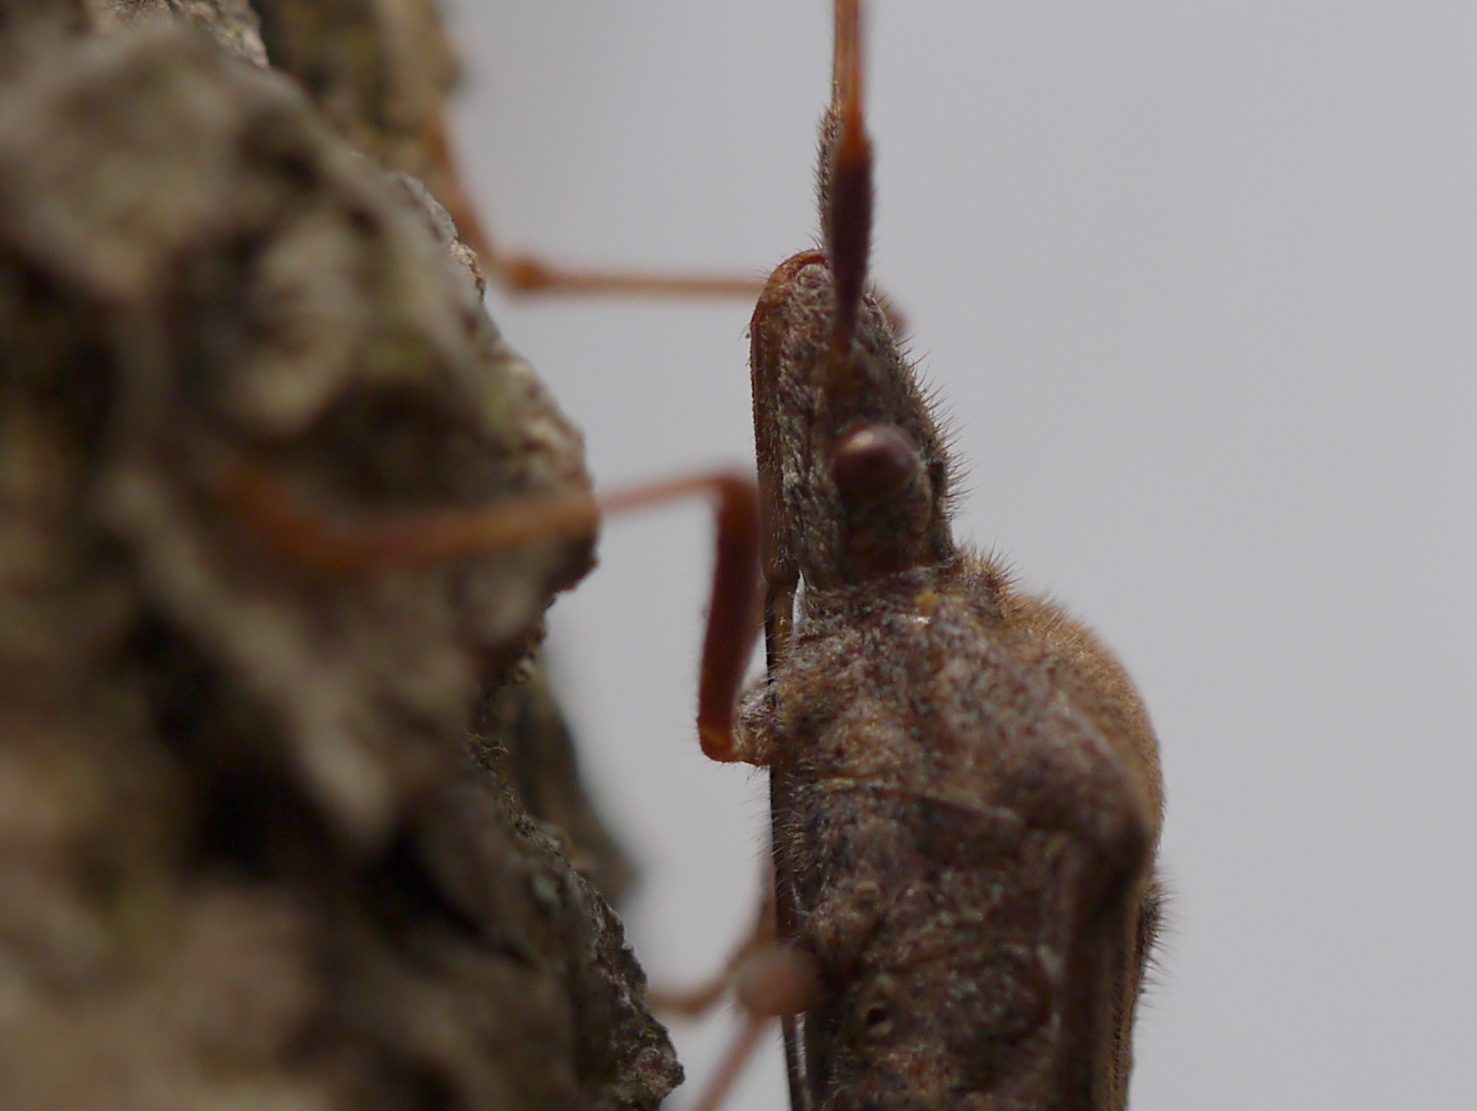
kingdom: Animalia
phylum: Arthropoda
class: Insecta
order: Hemiptera
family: Coreidae
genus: Leptoglossus
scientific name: Leptoglossus oppositus
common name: Northern leaf-footed bug
